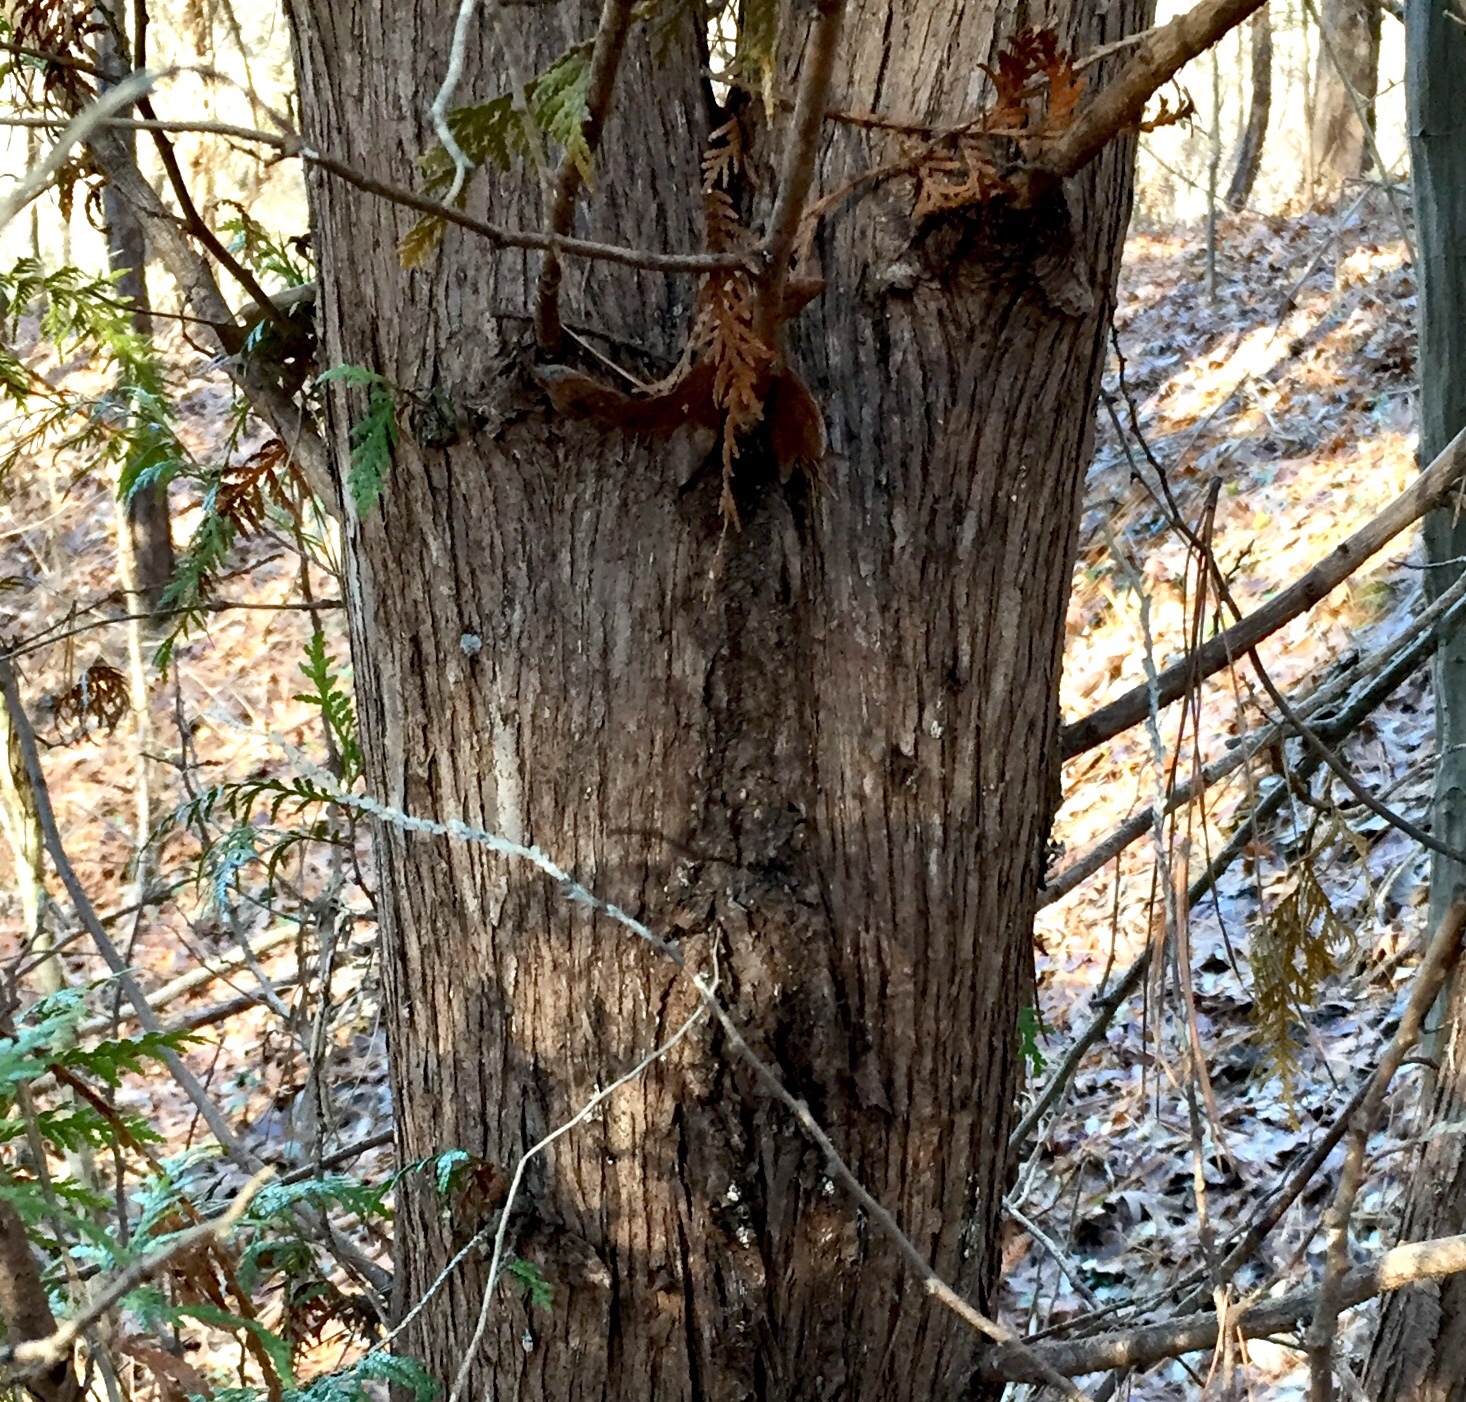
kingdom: Plantae
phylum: Tracheophyta
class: Pinopsida
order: Pinales
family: Cupressaceae
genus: Thuja
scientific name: Thuja occidentalis
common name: Northern white-cedar
